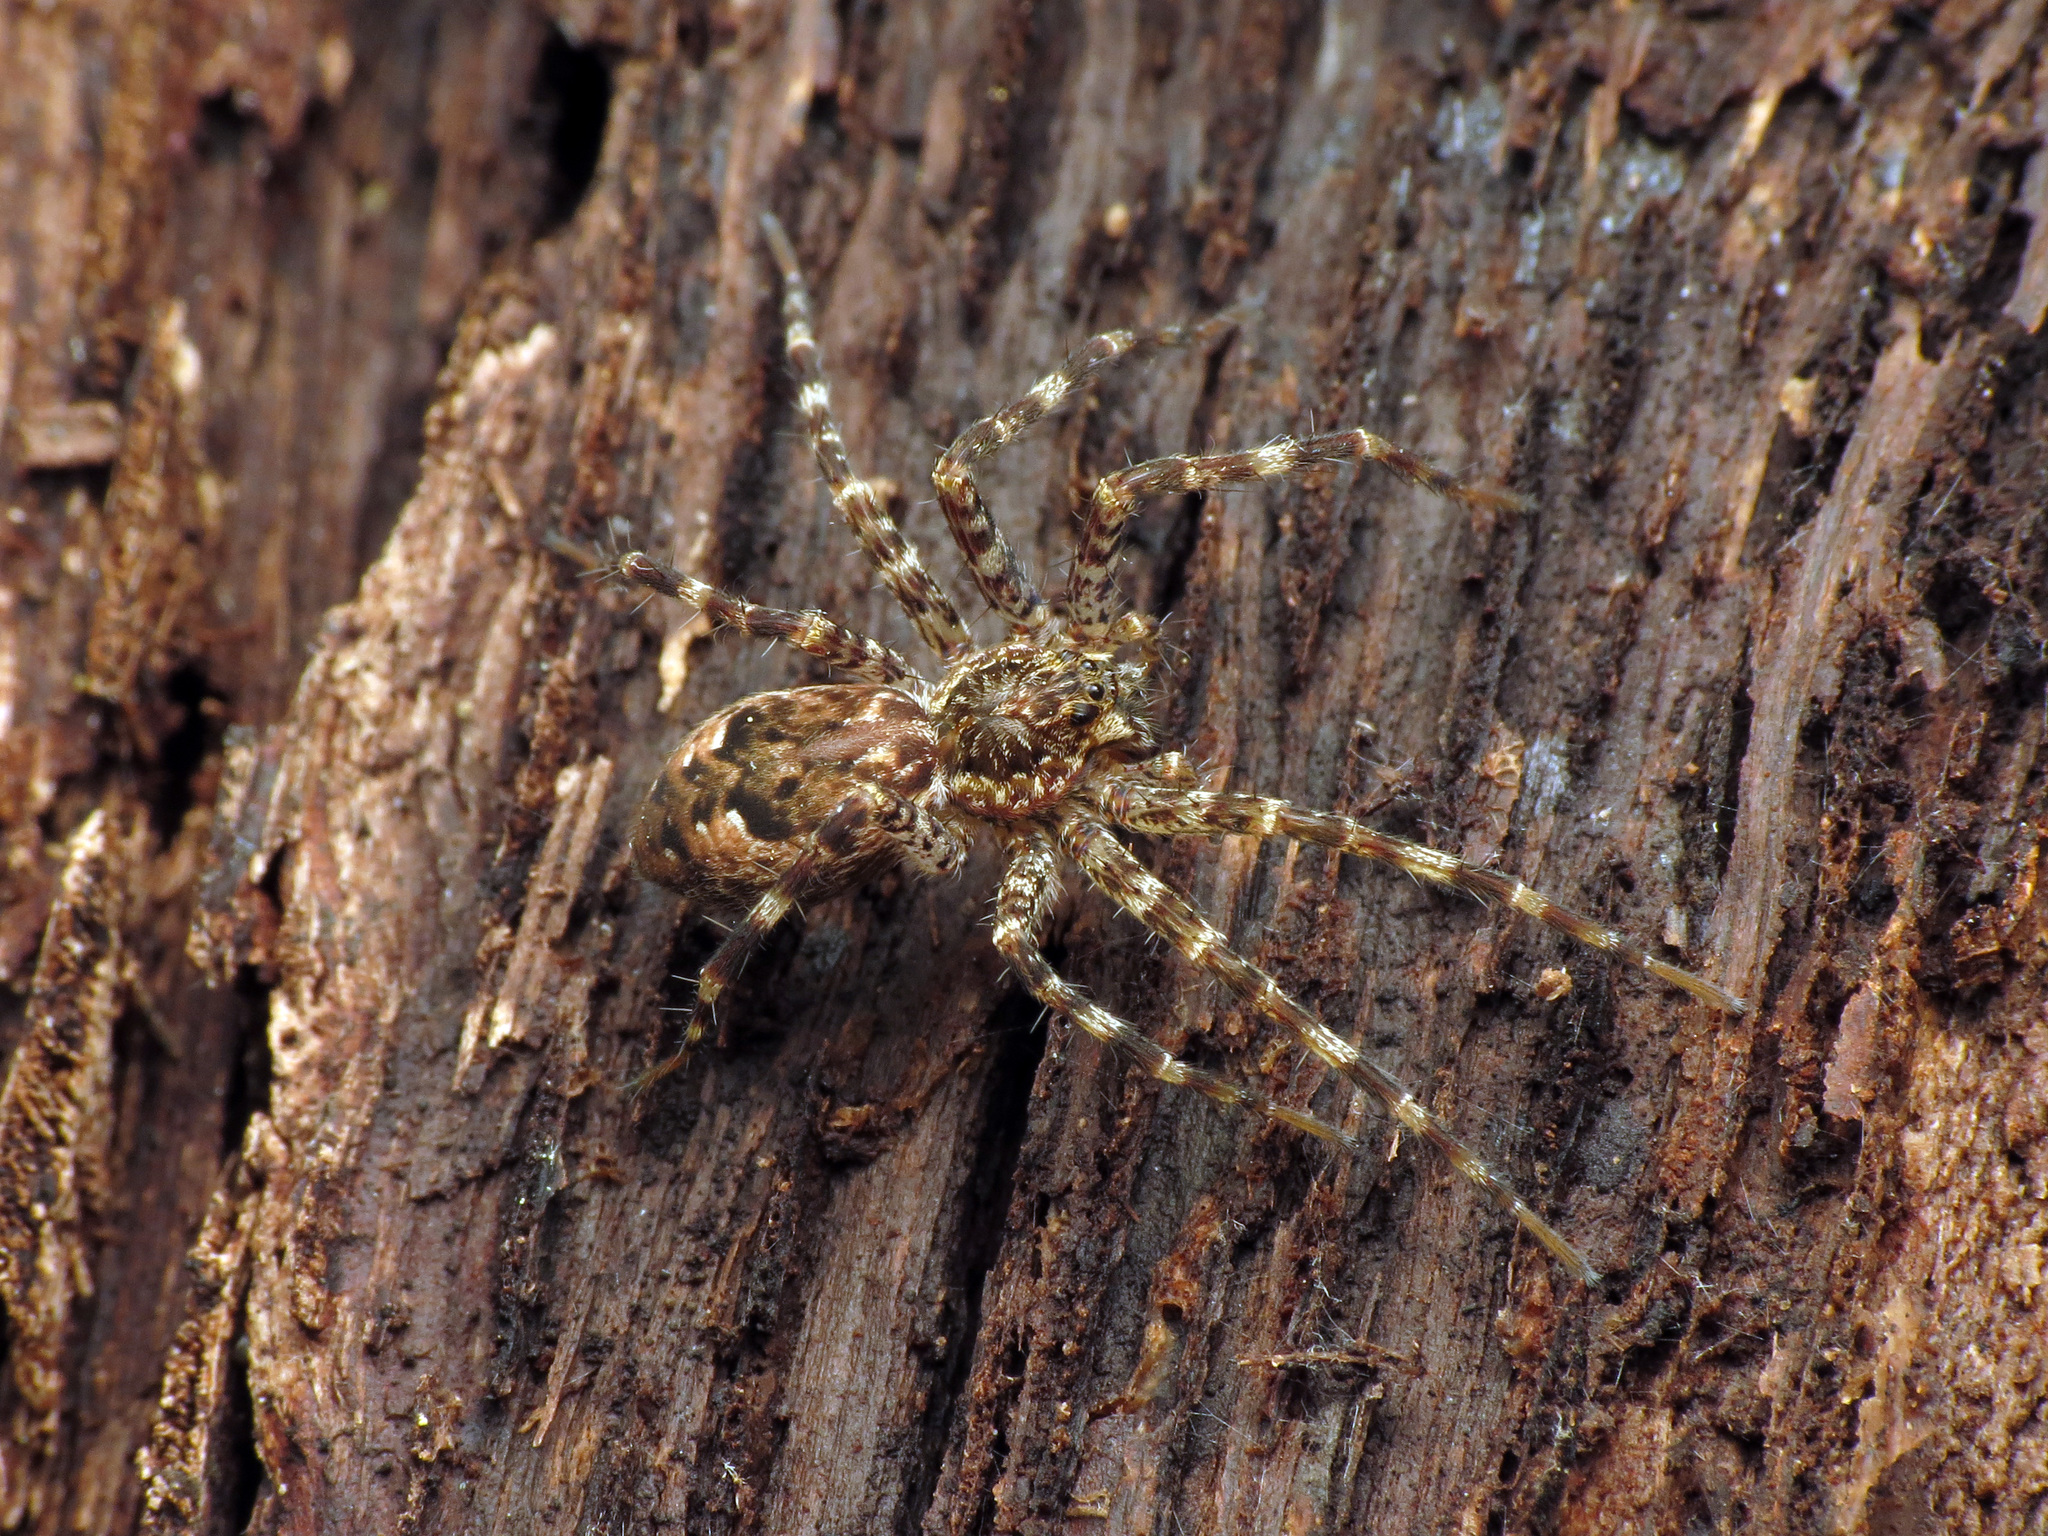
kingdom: Animalia
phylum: Arthropoda
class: Arachnida
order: Araneae
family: Pisauridae
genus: Dolomedes
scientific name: Dolomedes tenebrosus
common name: Dark fishing spider
